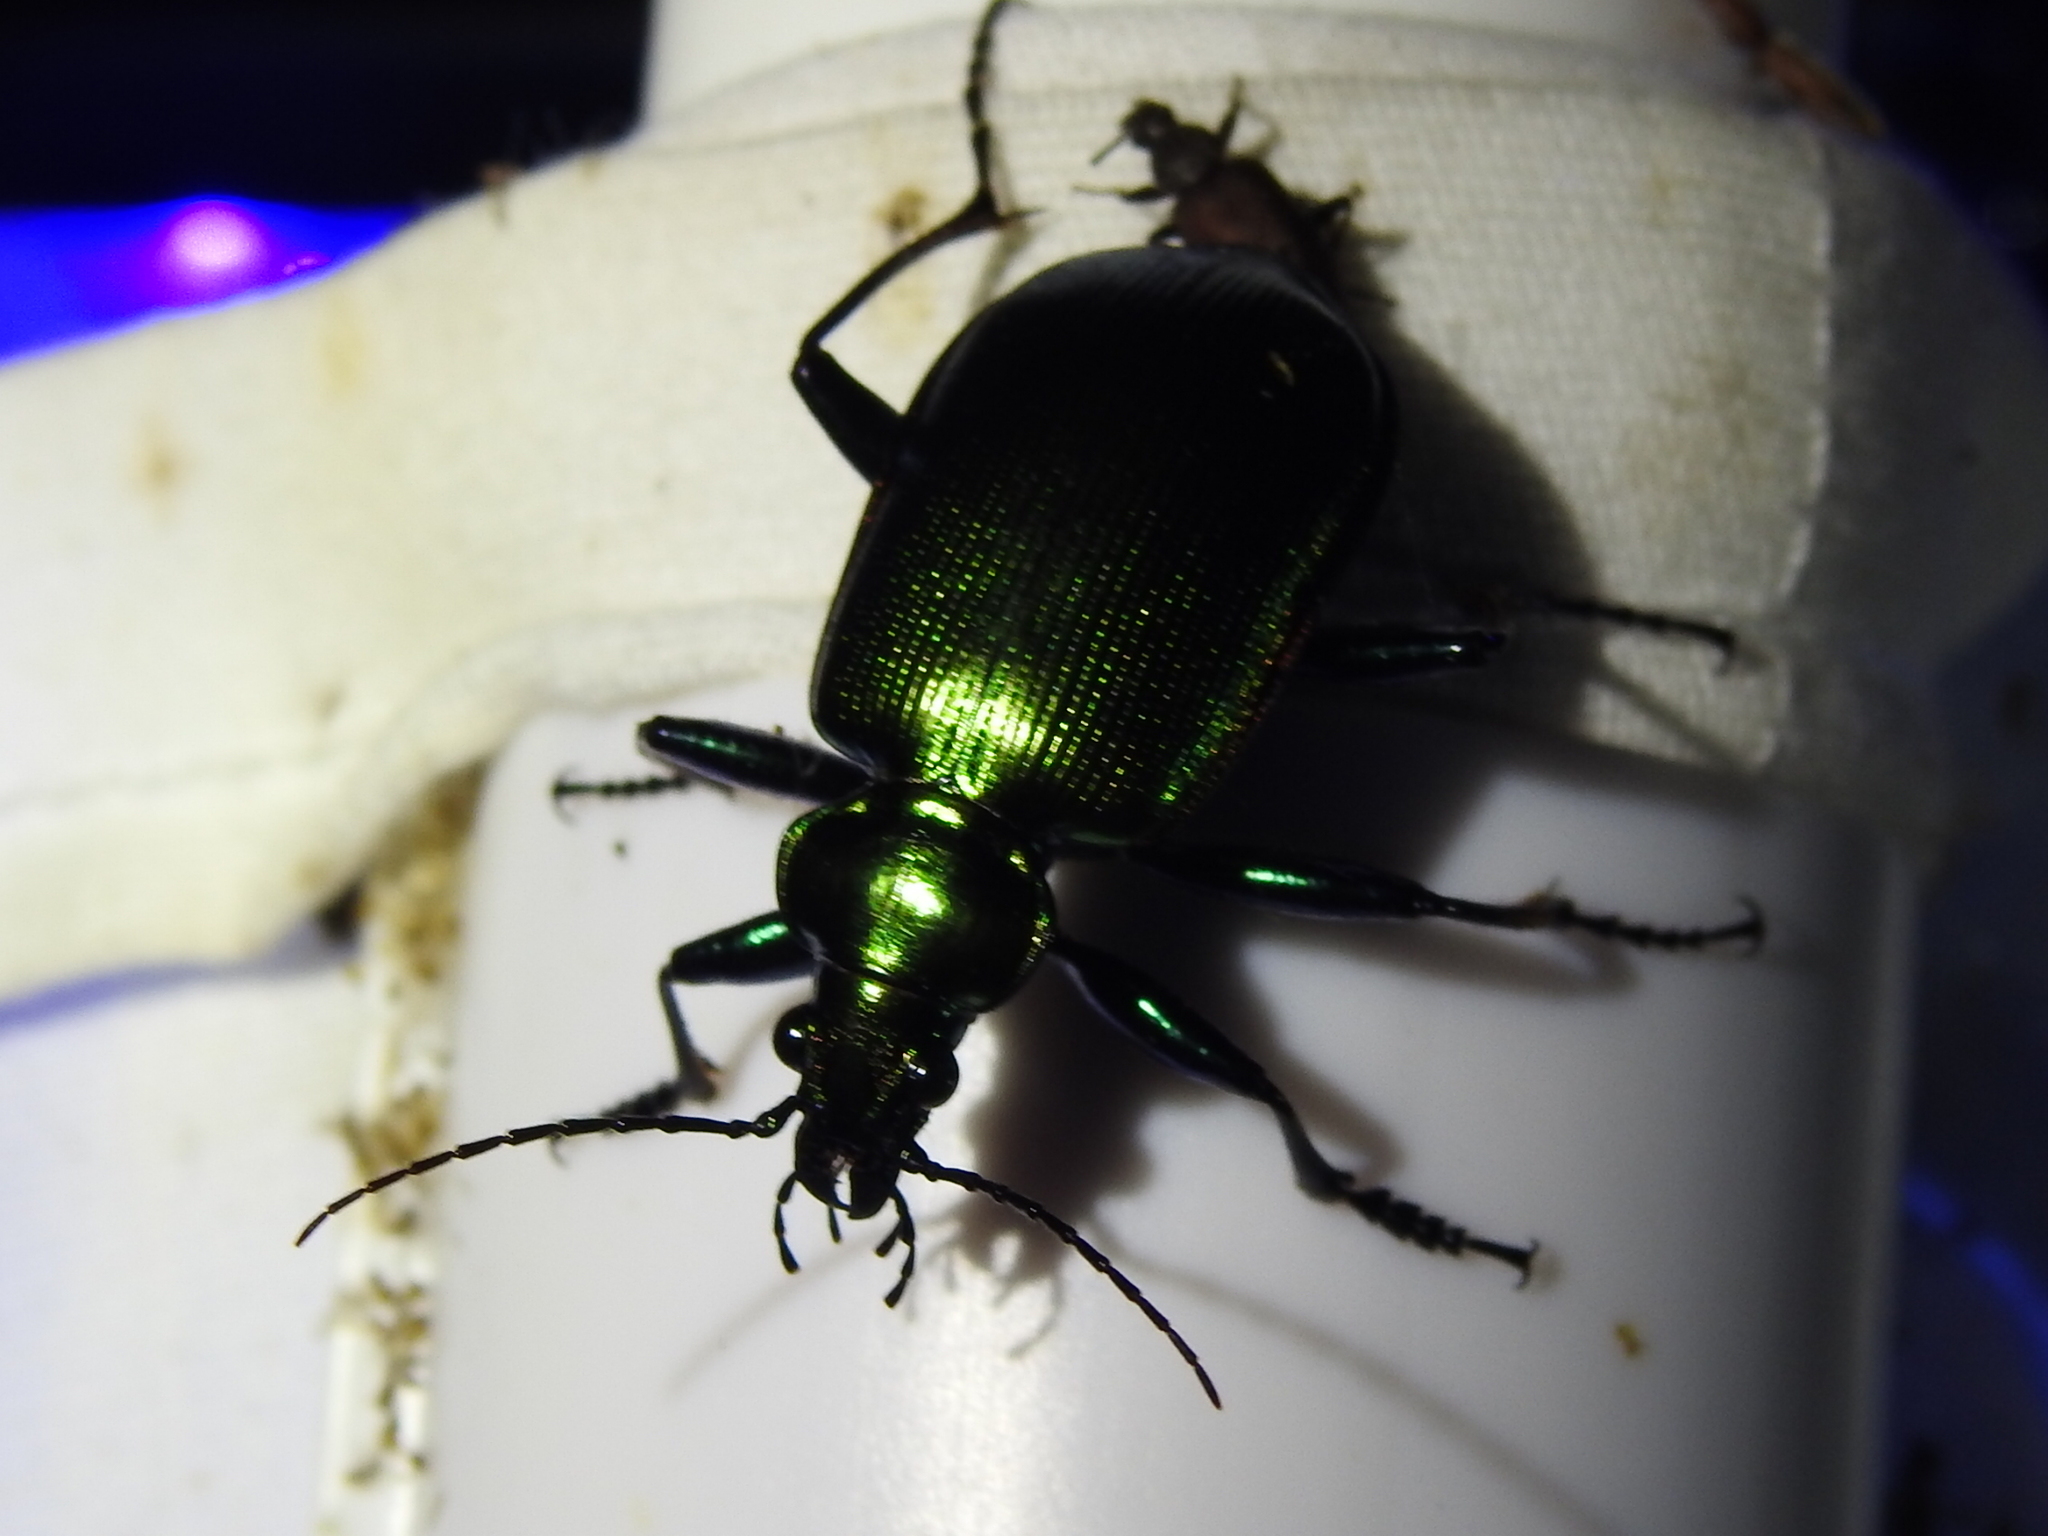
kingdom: Animalia
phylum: Arthropoda
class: Insecta
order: Coleoptera
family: Carabidae
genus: Calosoma
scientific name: Calosoma aurocinctum
